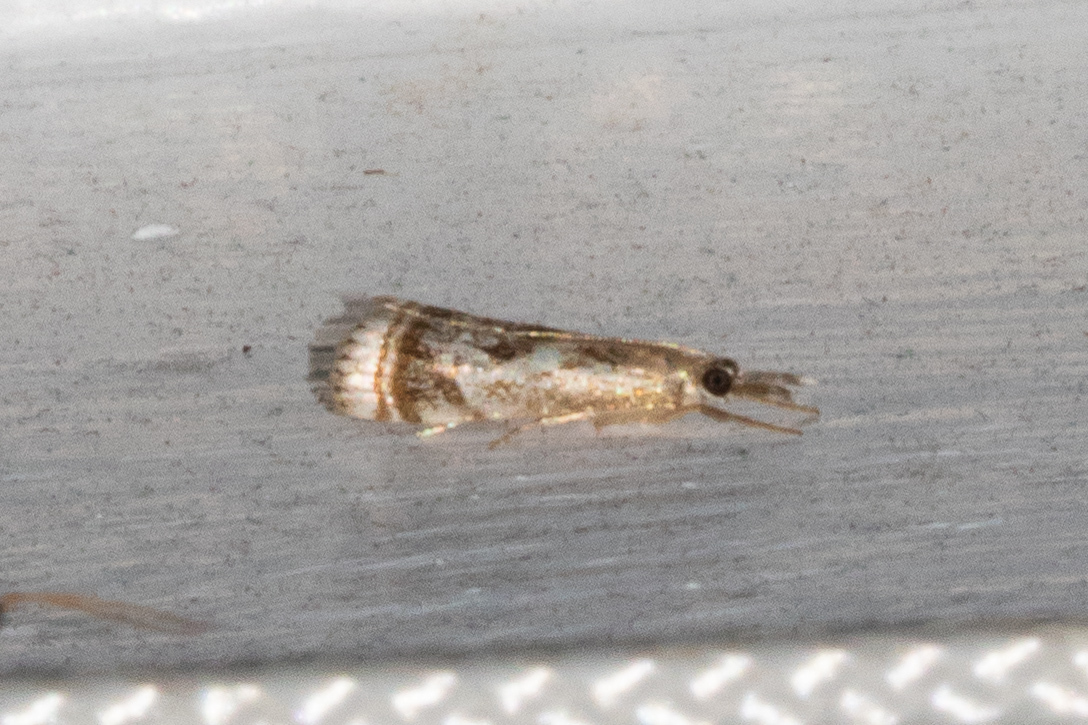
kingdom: Animalia
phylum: Arthropoda
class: Insecta
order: Lepidoptera
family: Crambidae
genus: Microcrambus
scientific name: Microcrambus elegans
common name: Elegant grass-veneer
